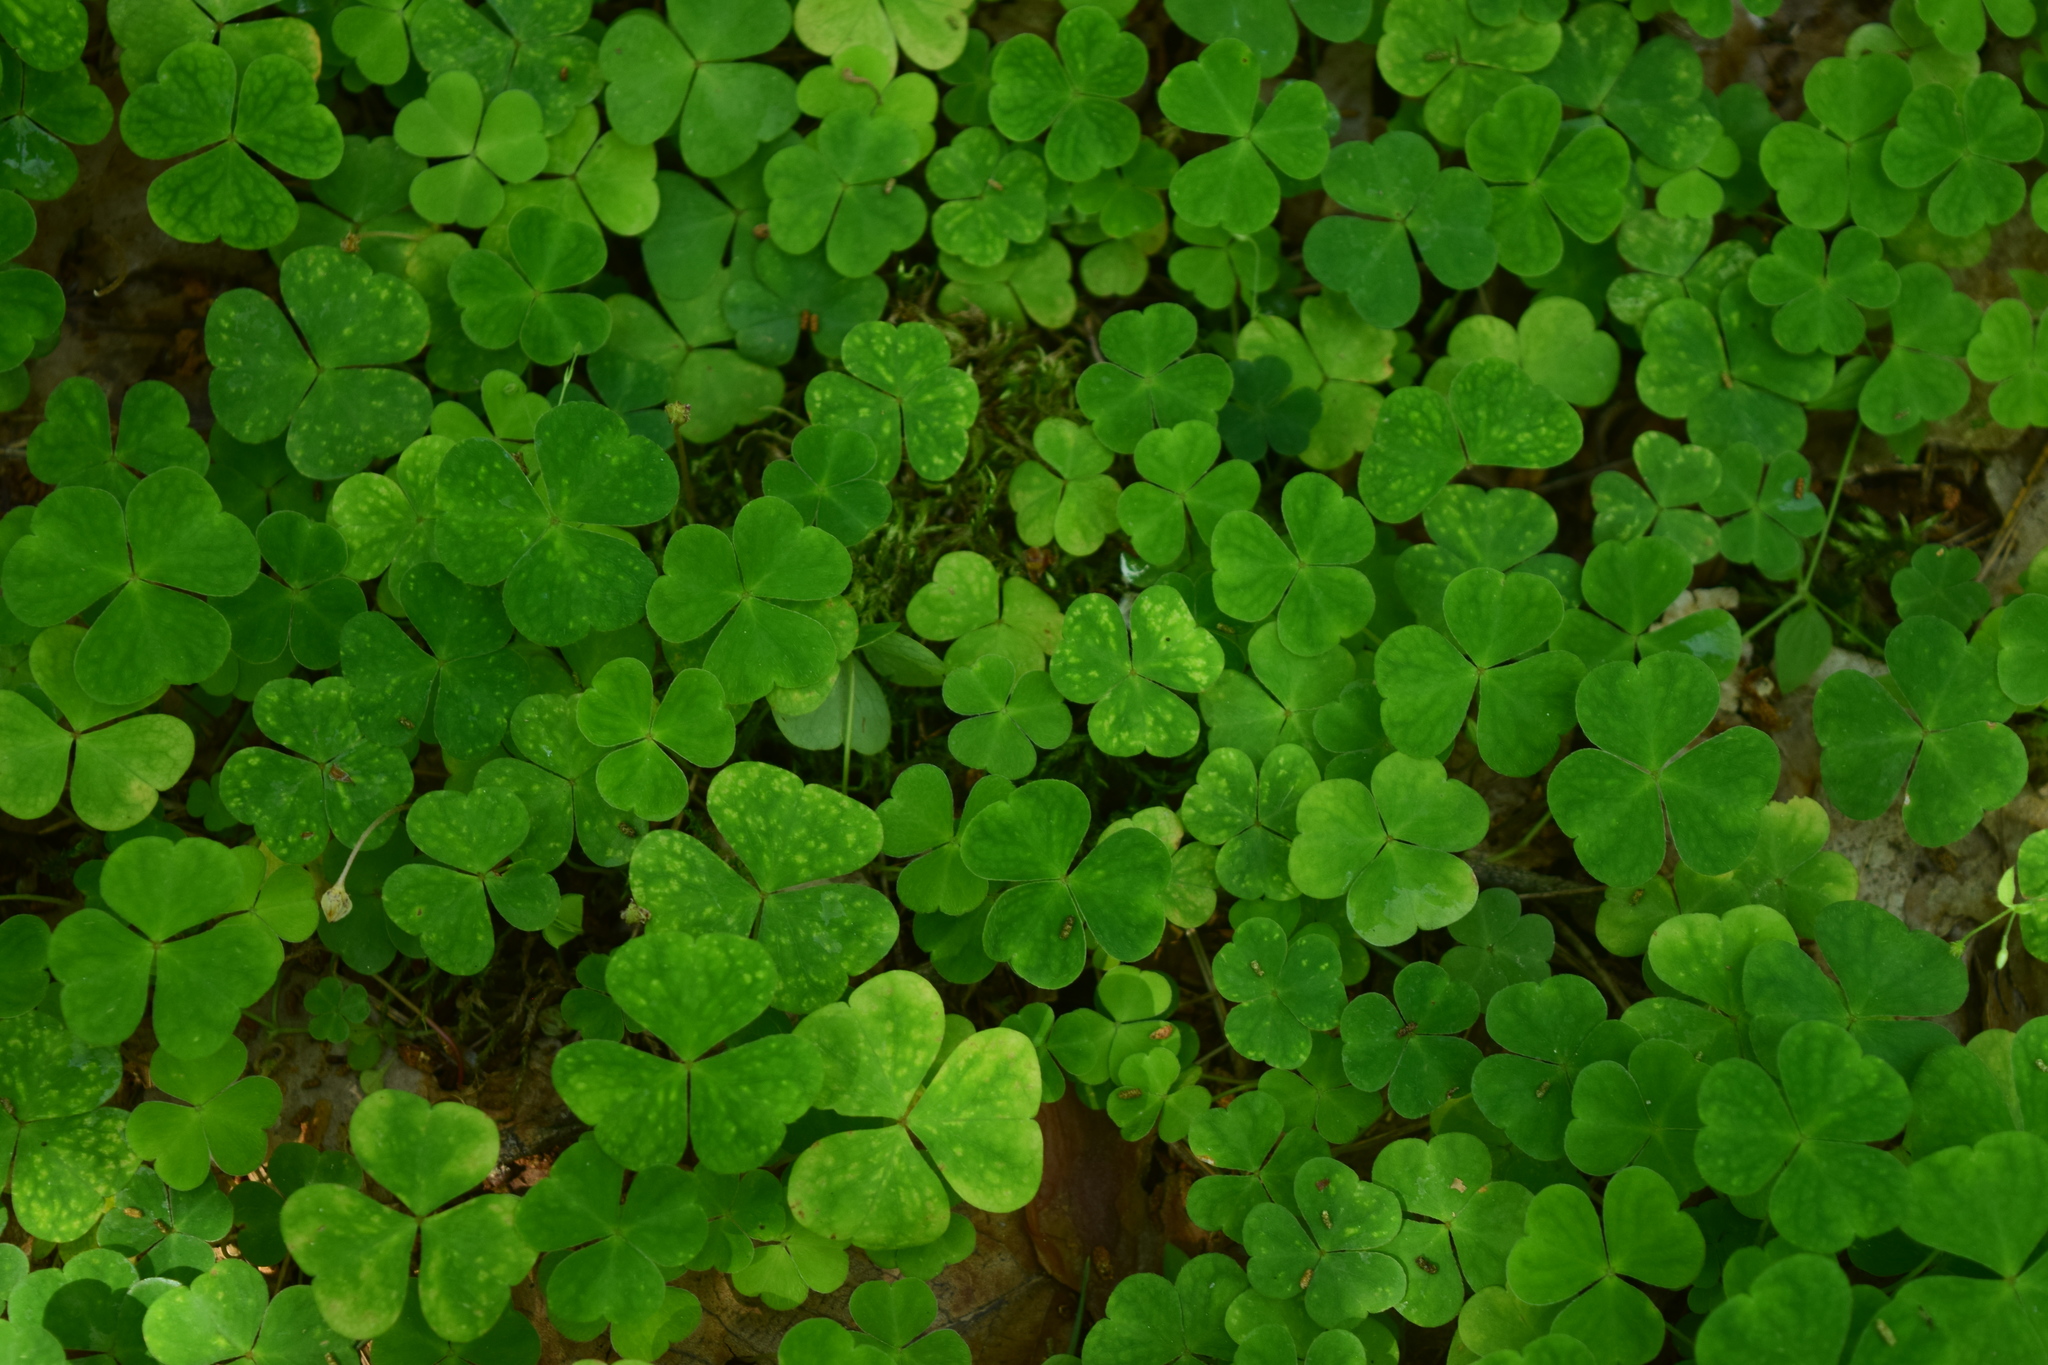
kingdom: Plantae
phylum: Tracheophyta
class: Magnoliopsida
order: Oxalidales
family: Oxalidaceae
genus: Oxalis
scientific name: Oxalis acetosella
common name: Wood-sorrel
